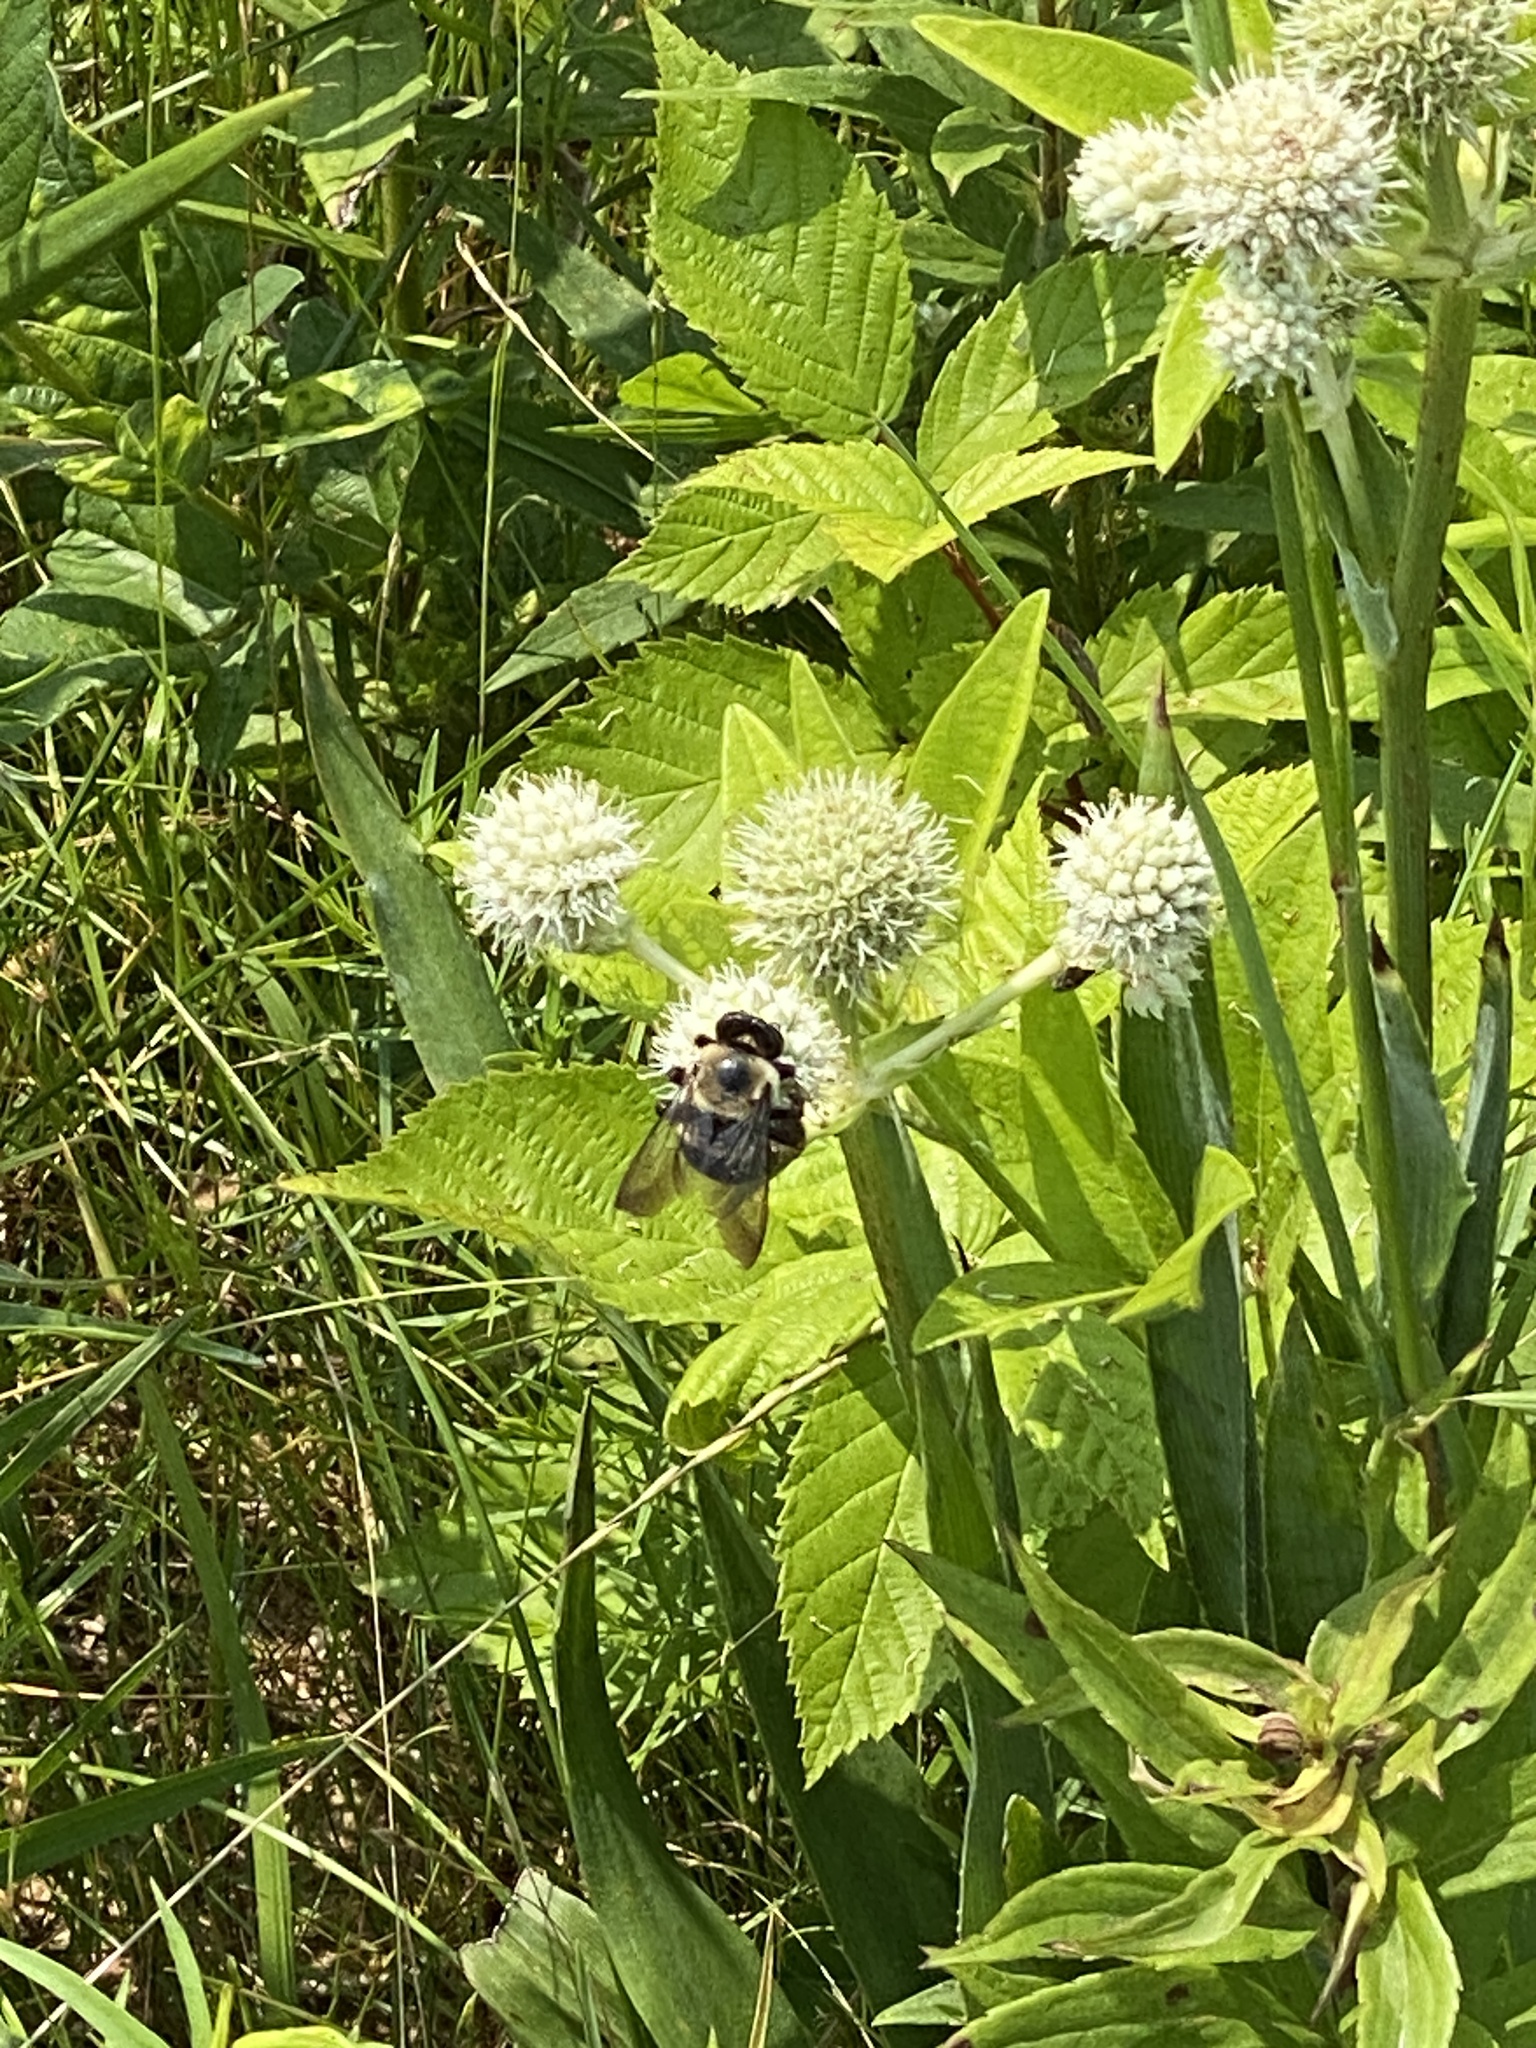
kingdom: Animalia
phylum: Arthropoda
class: Insecta
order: Hymenoptera
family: Apidae
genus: Xylocopa
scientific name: Xylocopa virginica
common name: Carpenter bee
